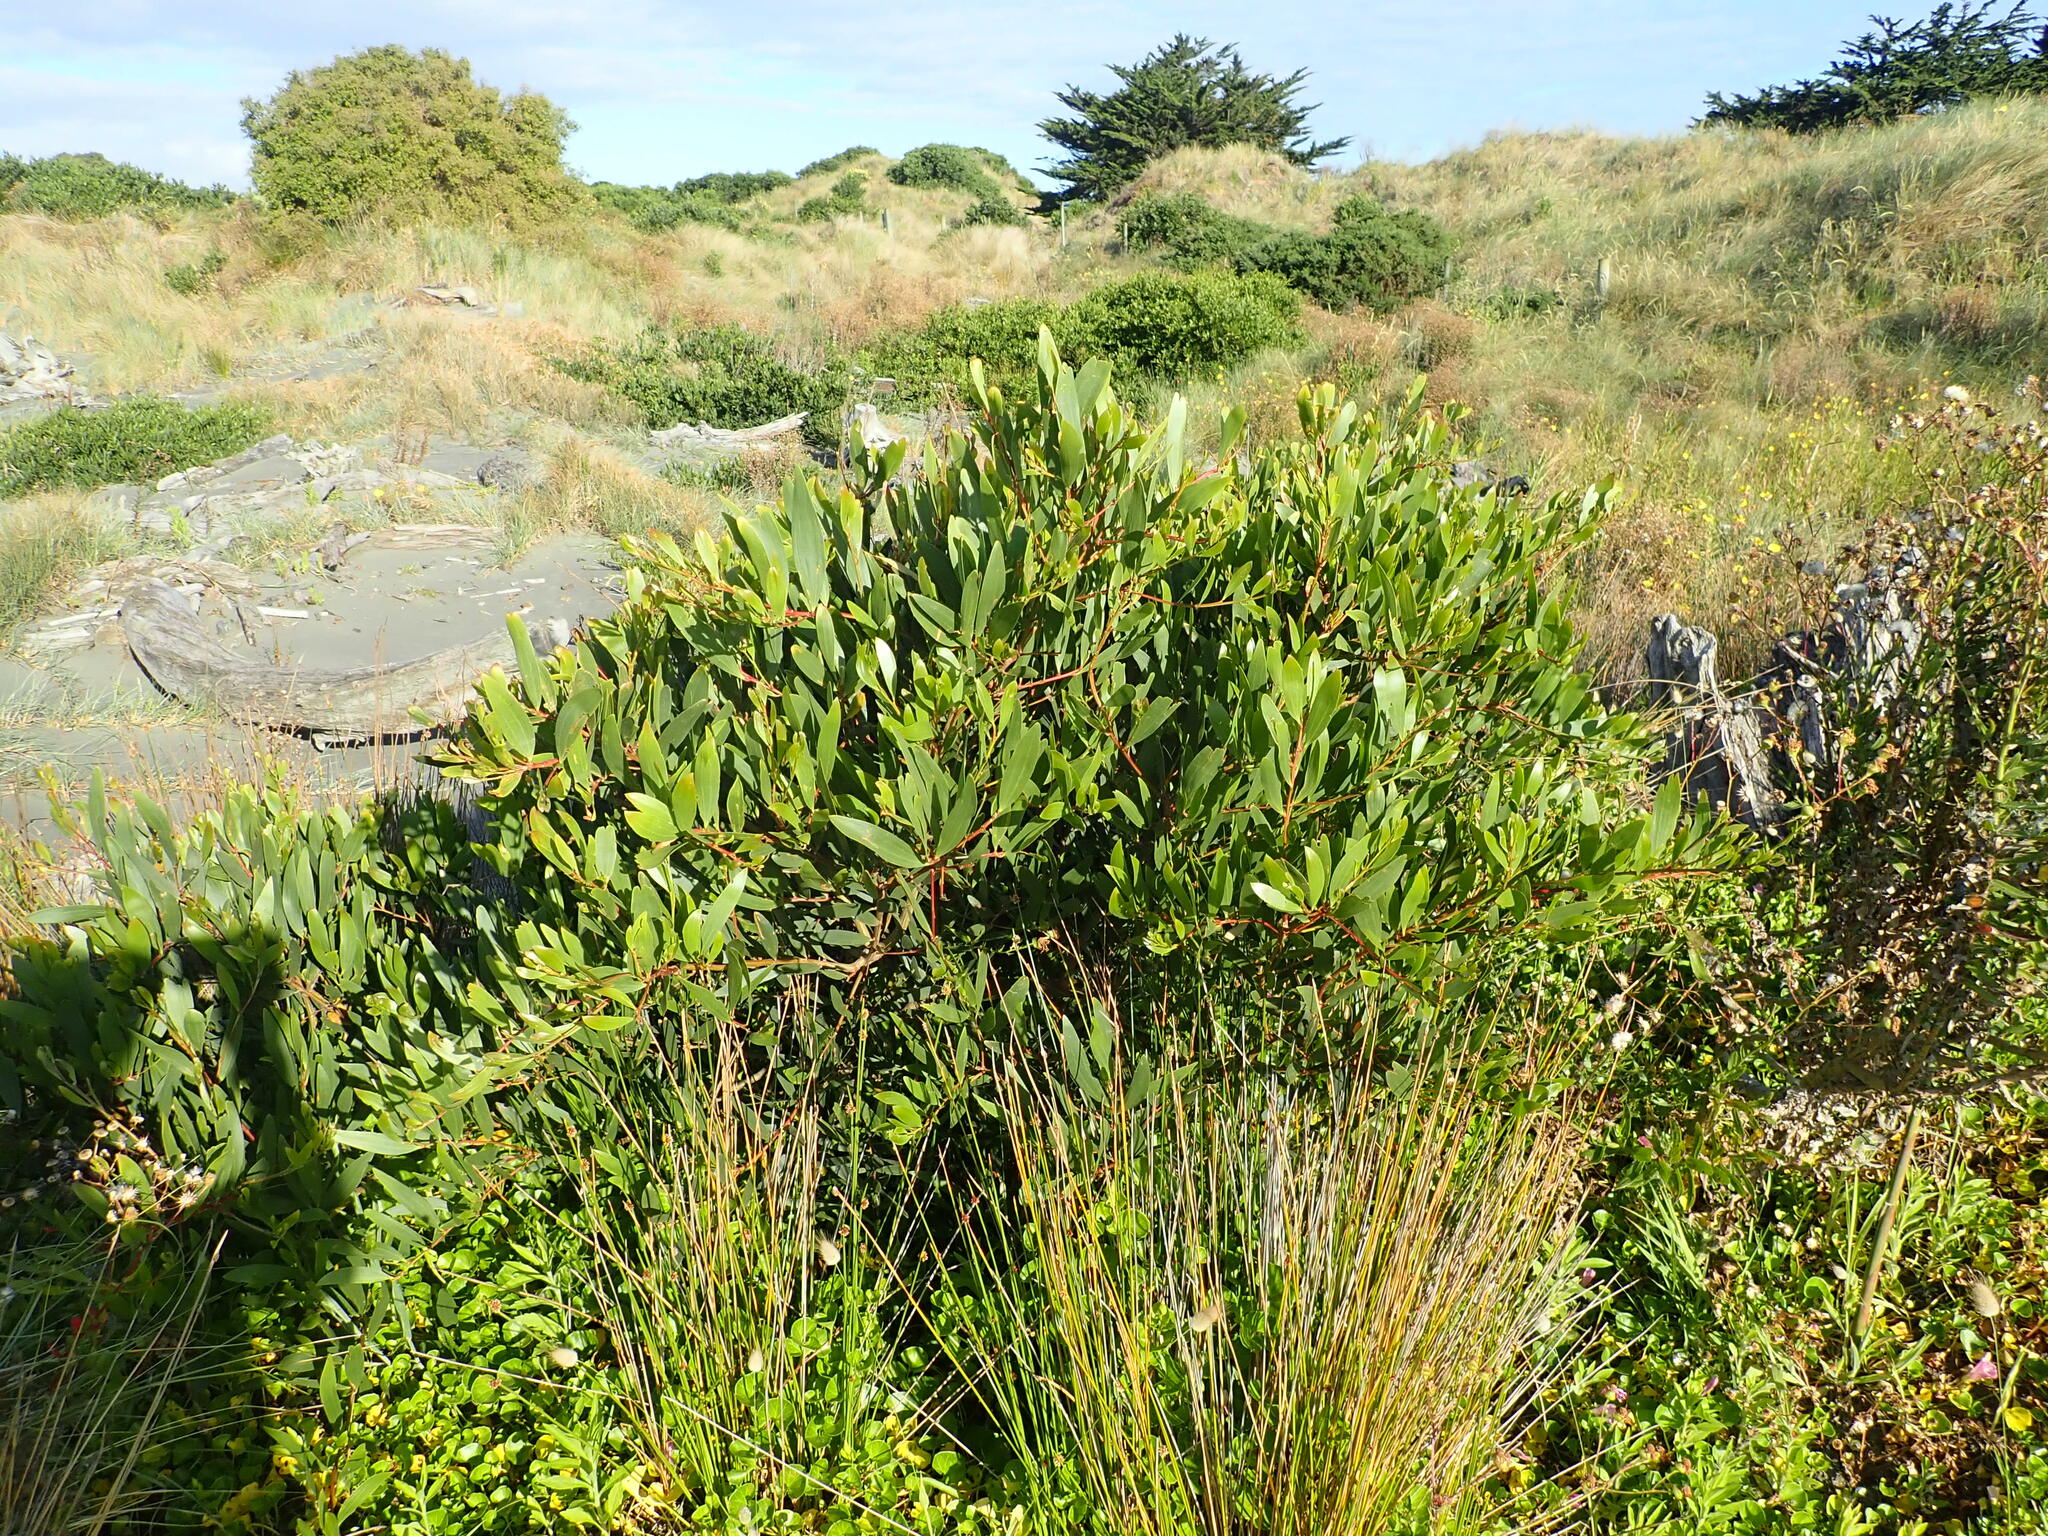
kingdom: Plantae
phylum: Tracheophyta
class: Magnoliopsida
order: Fabales
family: Fabaceae
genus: Acacia
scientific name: Acacia longifolia
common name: Sydney golden wattle
